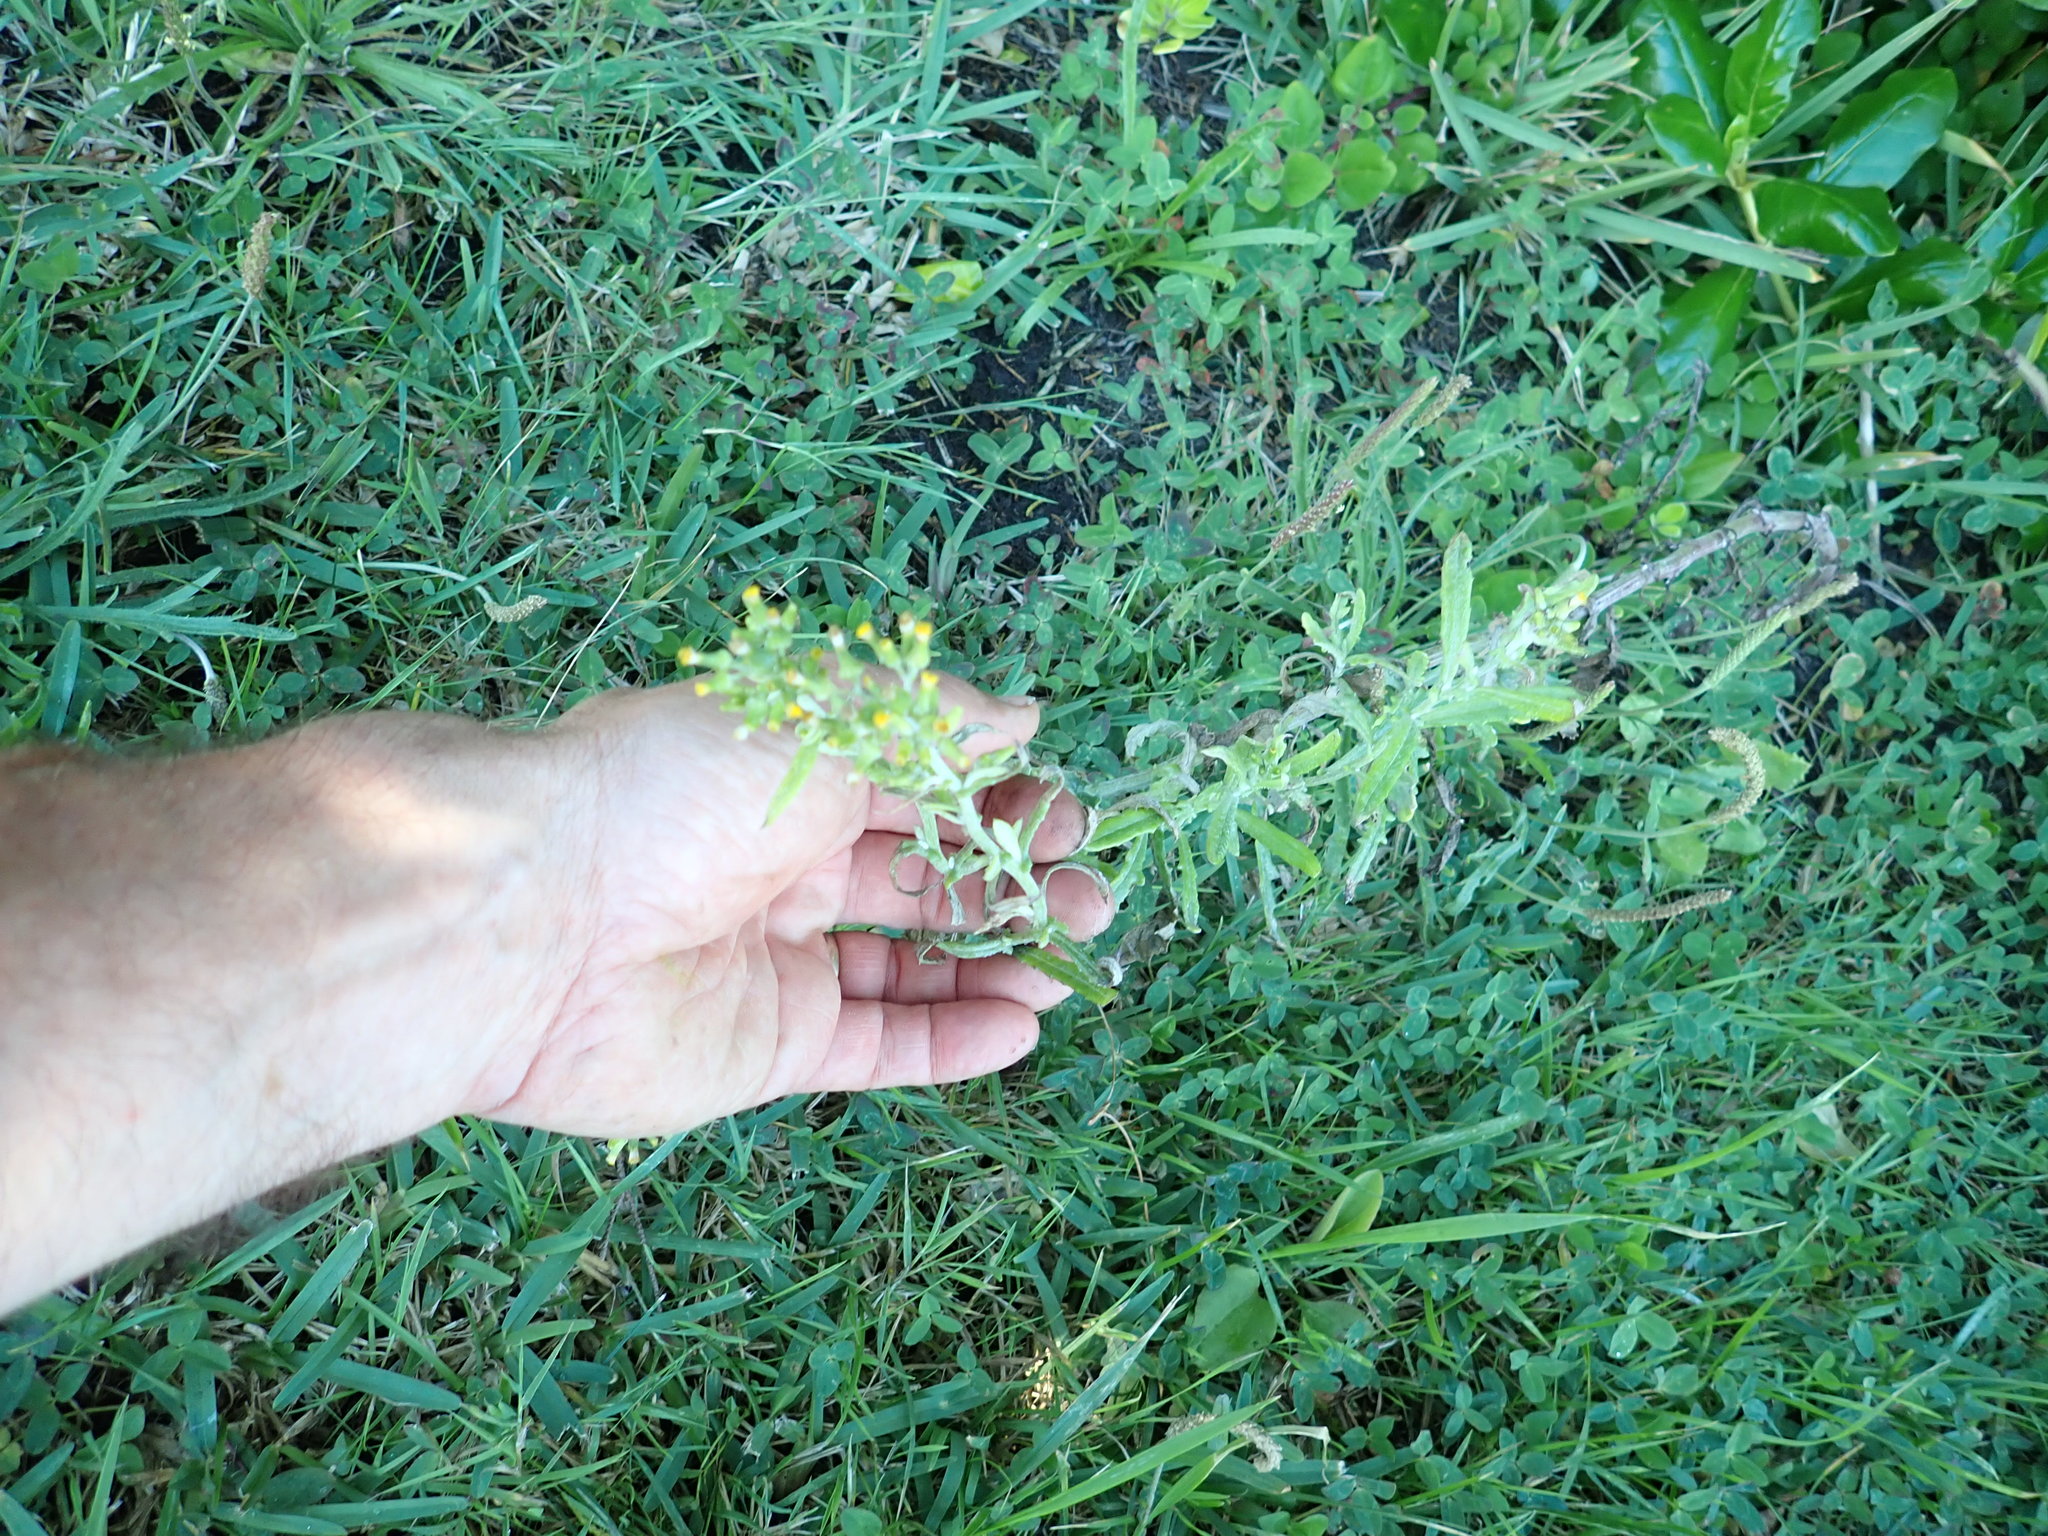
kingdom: Plantae
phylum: Tracheophyta
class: Magnoliopsida
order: Asterales
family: Asteraceae
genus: Senecio
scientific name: Senecio quadridentatus
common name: Cotton fireweed
